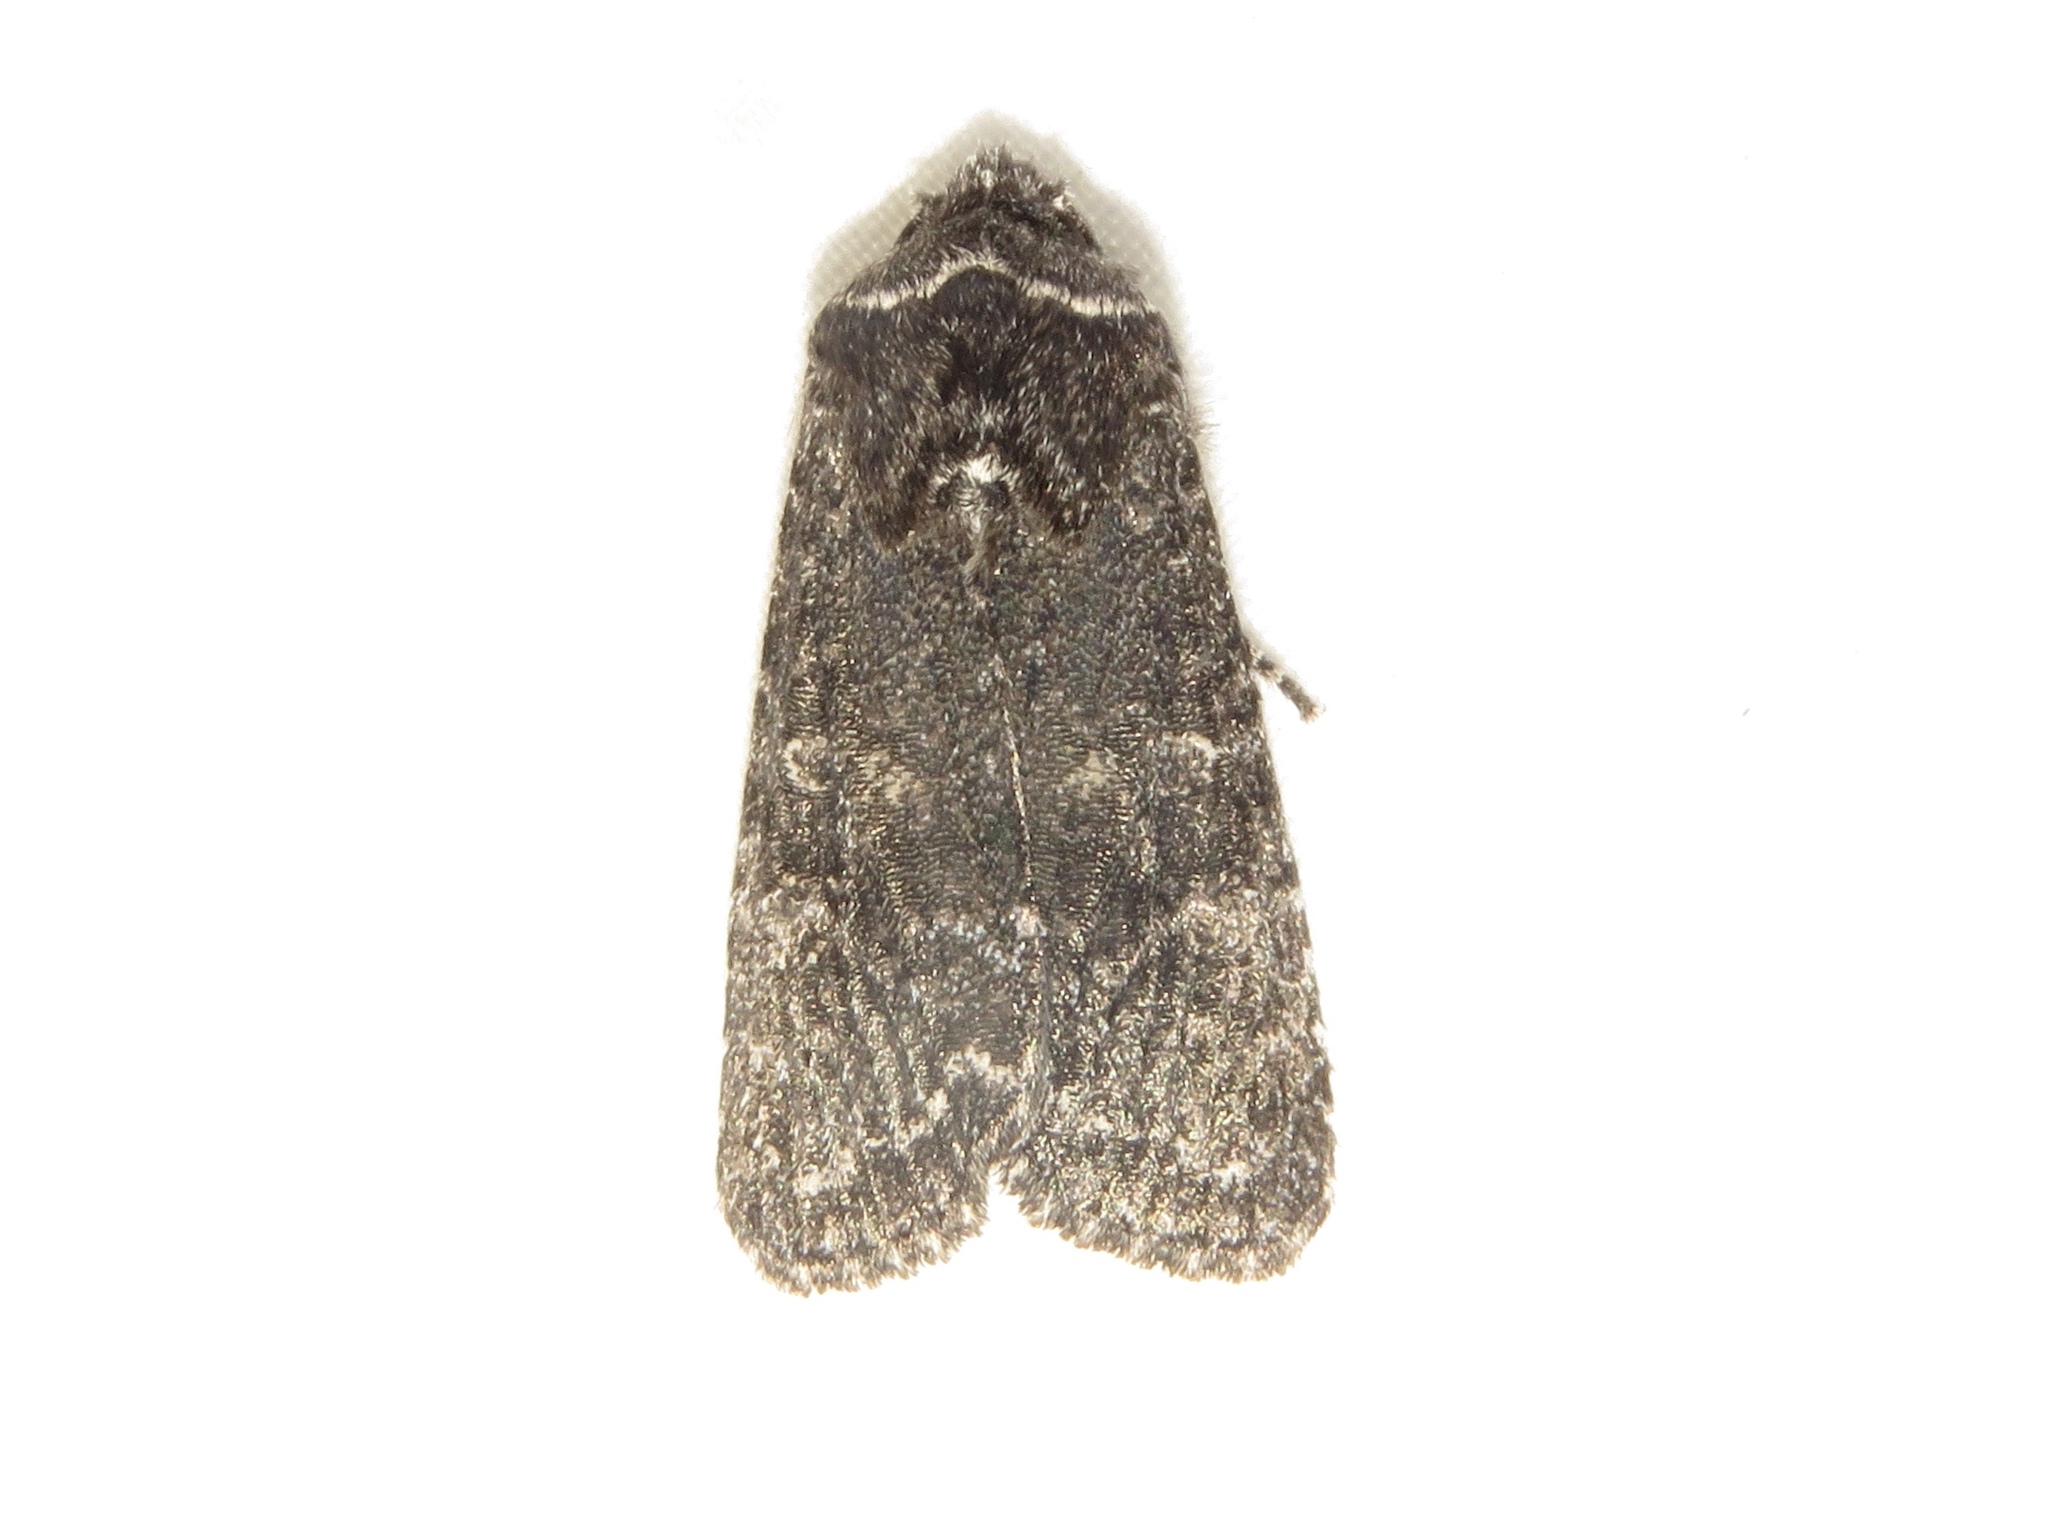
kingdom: Animalia
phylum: Arthropoda
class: Insecta
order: Lepidoptera
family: Noctuidae
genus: Egira
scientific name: Egira dolosa
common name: Lined black aspen cat.
